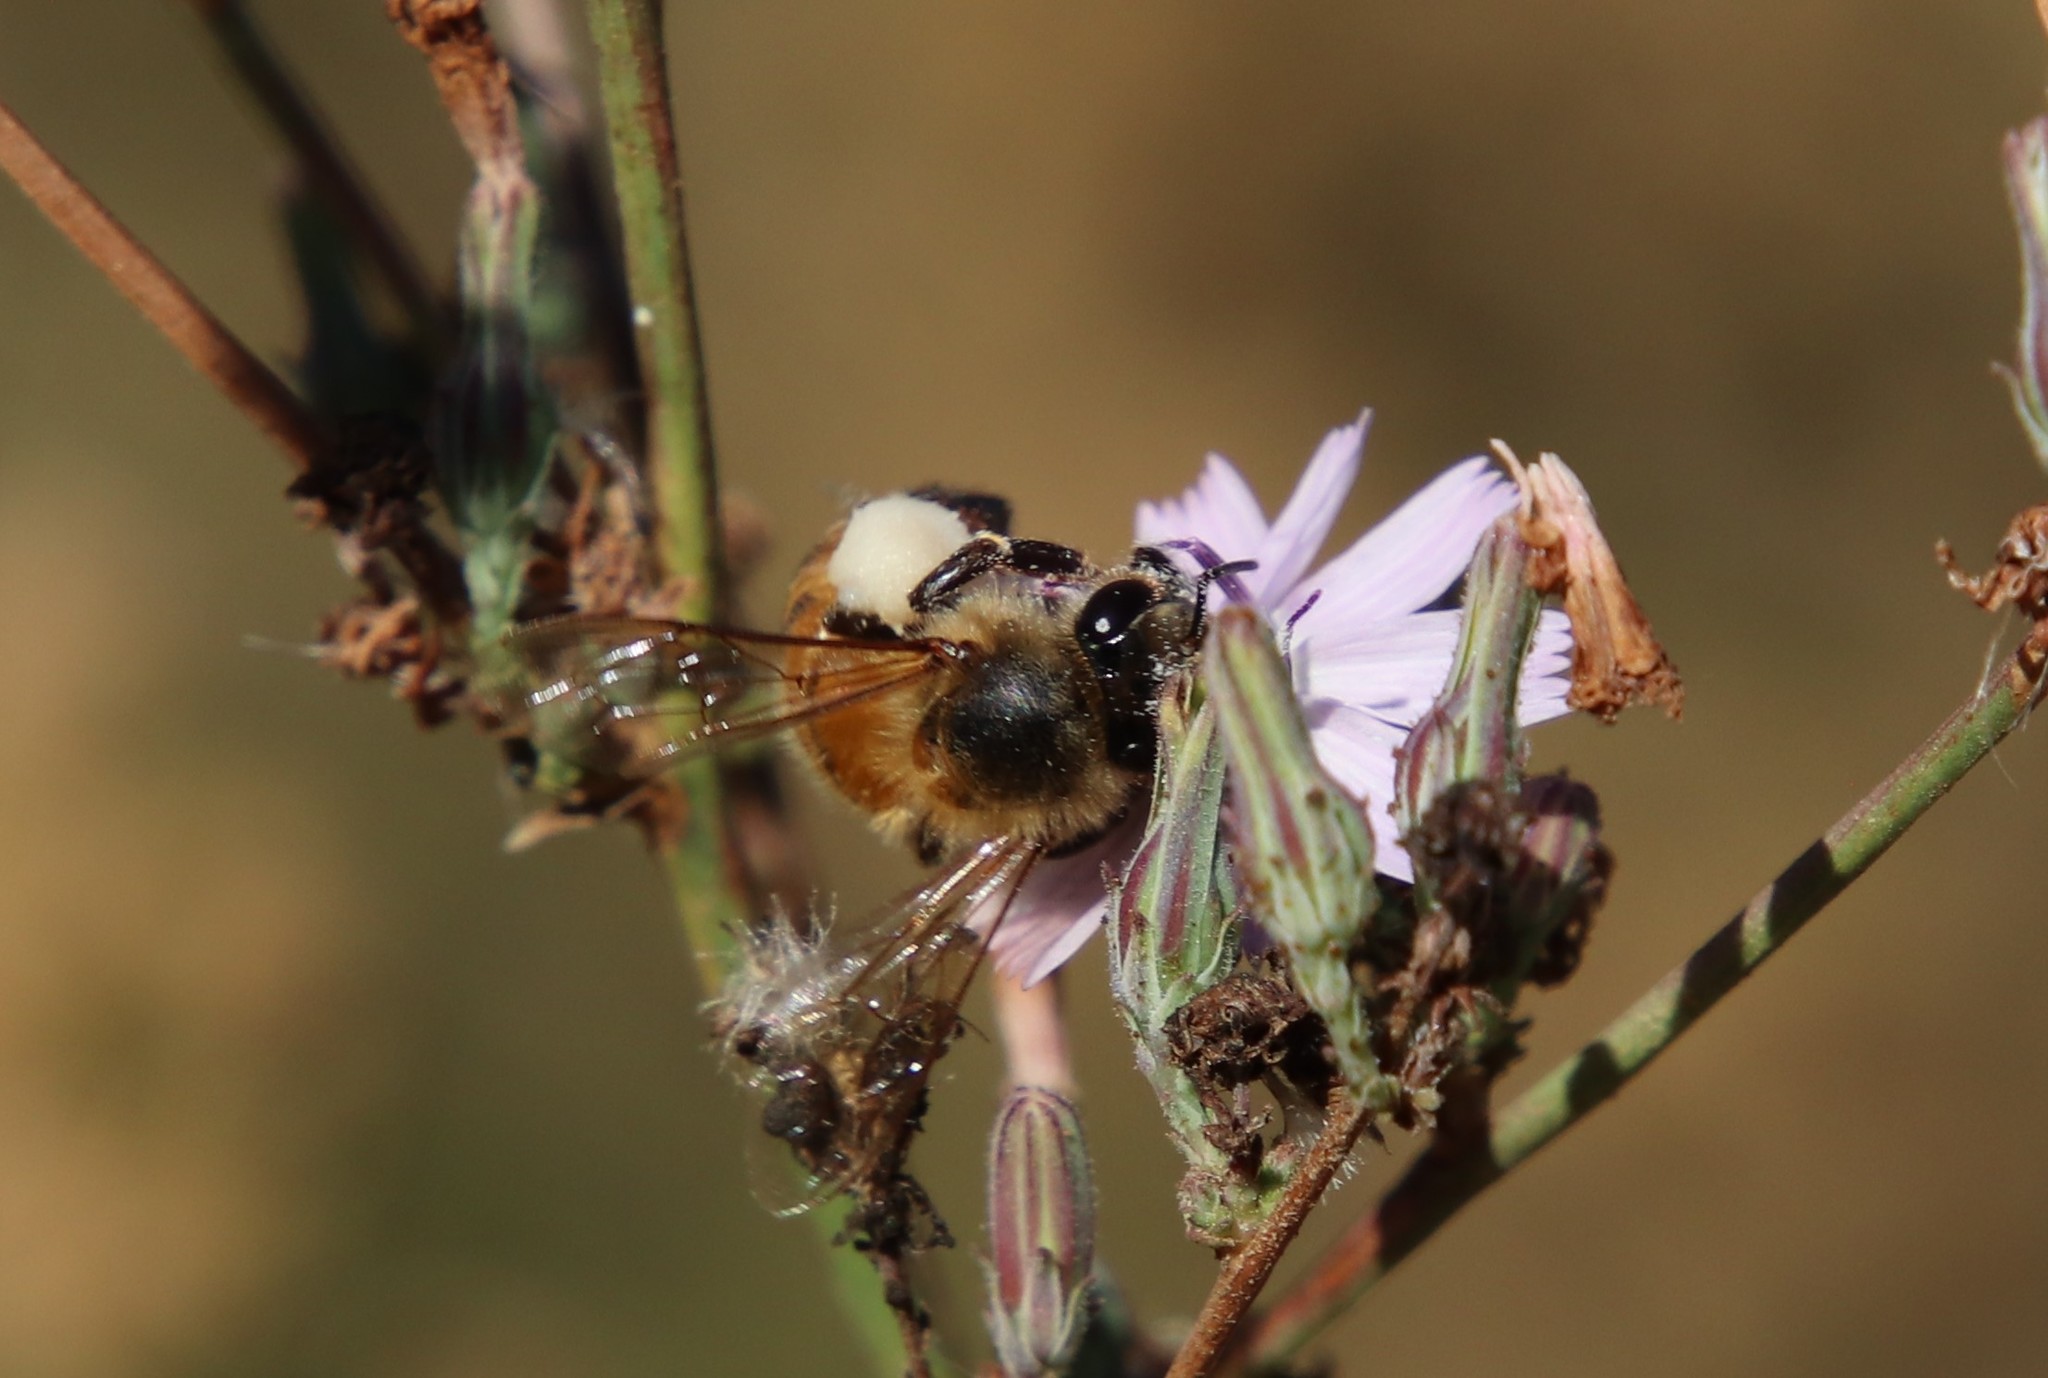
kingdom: Animalia
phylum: Arthropoda
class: Insecta
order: Hymenoptera
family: Apidae
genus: Apis
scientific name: Apis mellifera
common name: Honey bee
